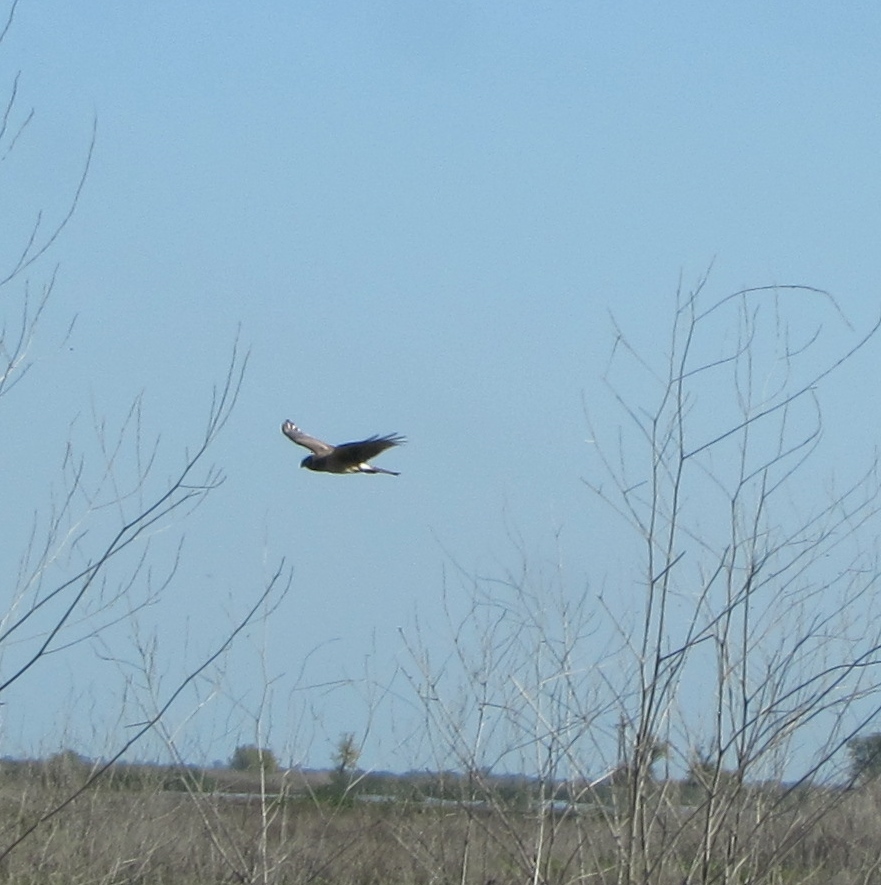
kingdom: Animalia
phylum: Chordata
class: Aves
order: Accipitriformes
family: Accipitridae
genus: Circus
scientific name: Circus cyaneus
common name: Hen harrier
